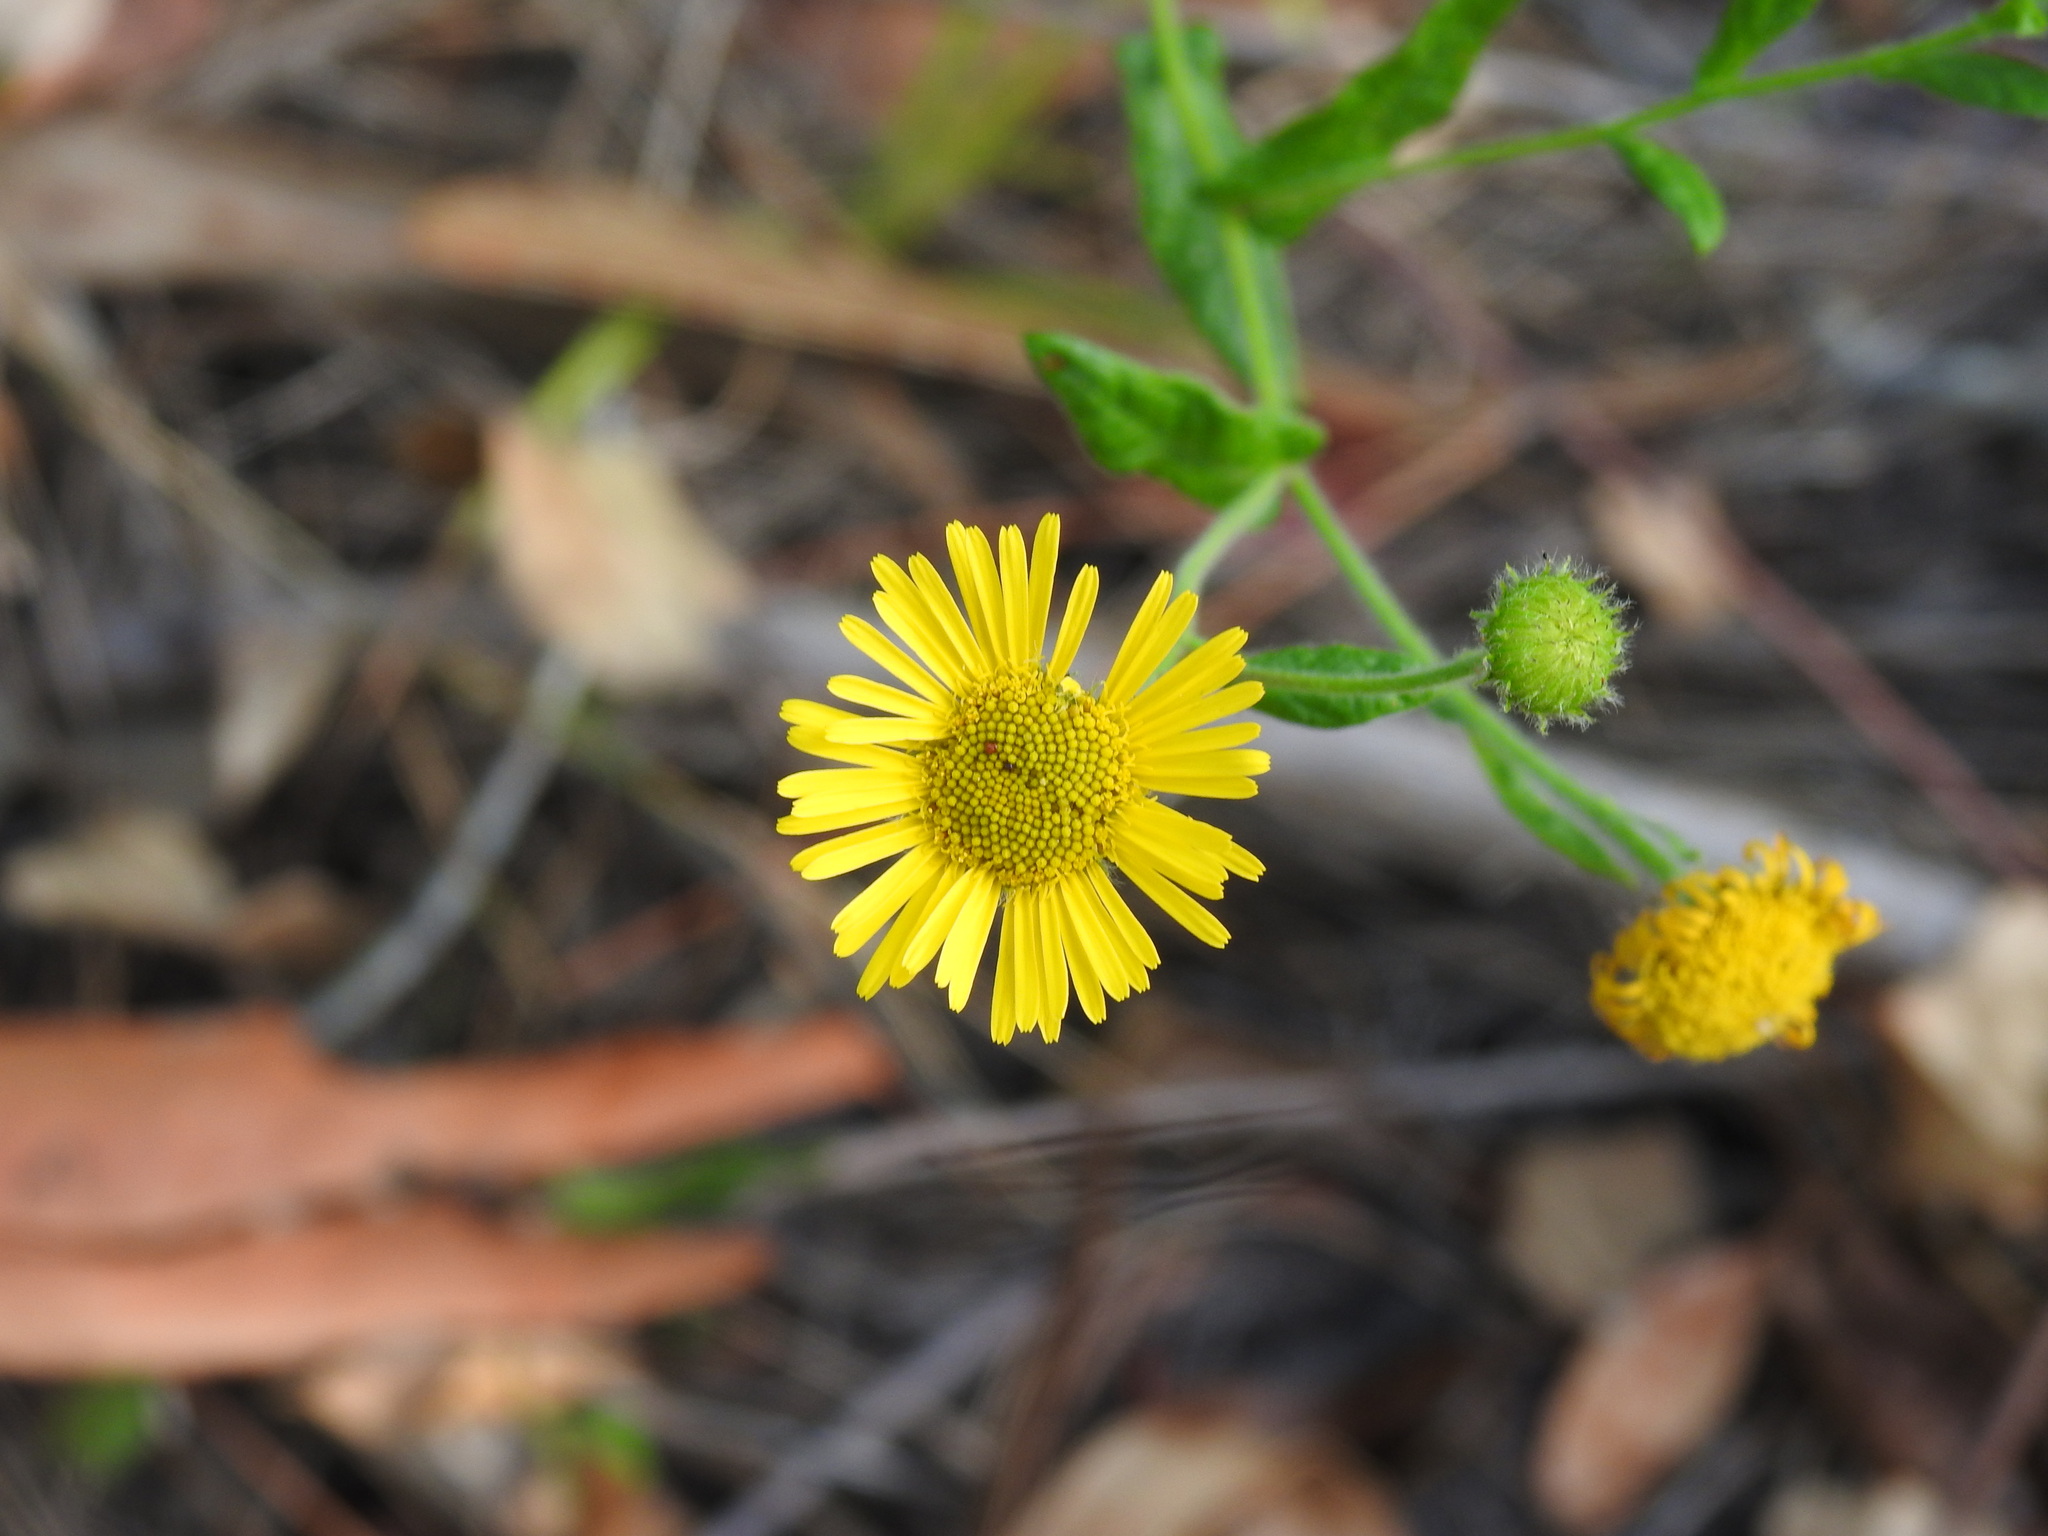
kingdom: Plantae
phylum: Tracheophyta
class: Magnoliopsida
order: Asterales
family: Asteraceae
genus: Pulicaria
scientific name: Pulicaria dysenterica
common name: Common fleabane
